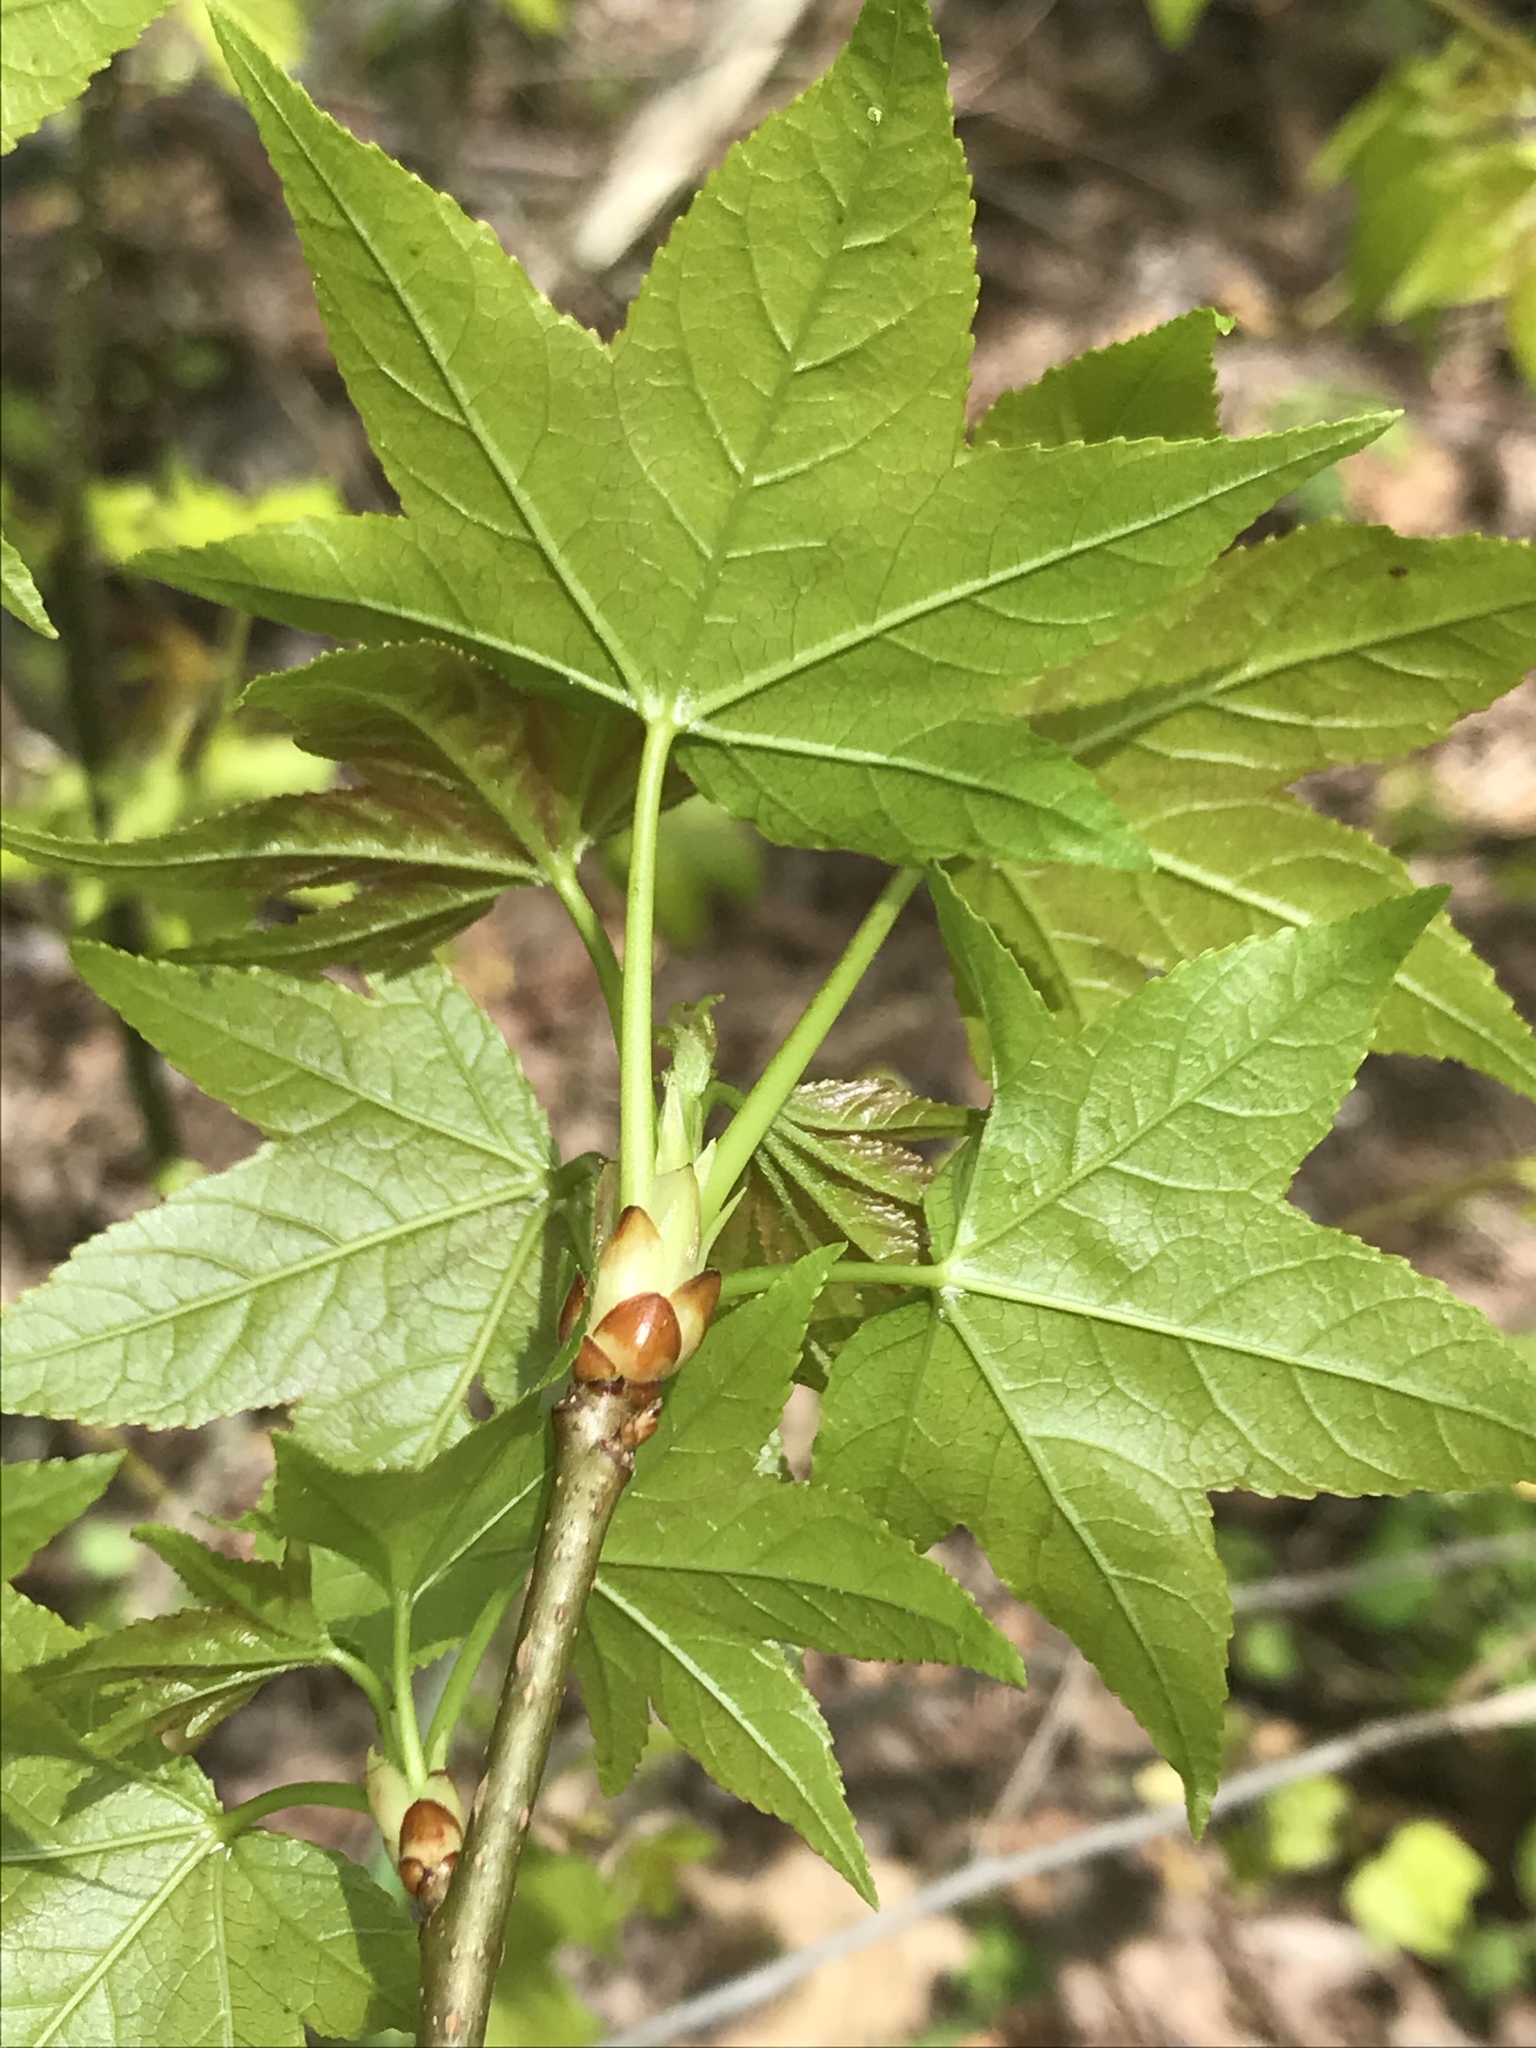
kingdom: Plantae
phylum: Tracheophyta
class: Magnoliopsida
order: Saxifragales
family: Altingiaceae
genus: Liquidambar
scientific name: Liquidambar styraciflua
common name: Sweet gum
